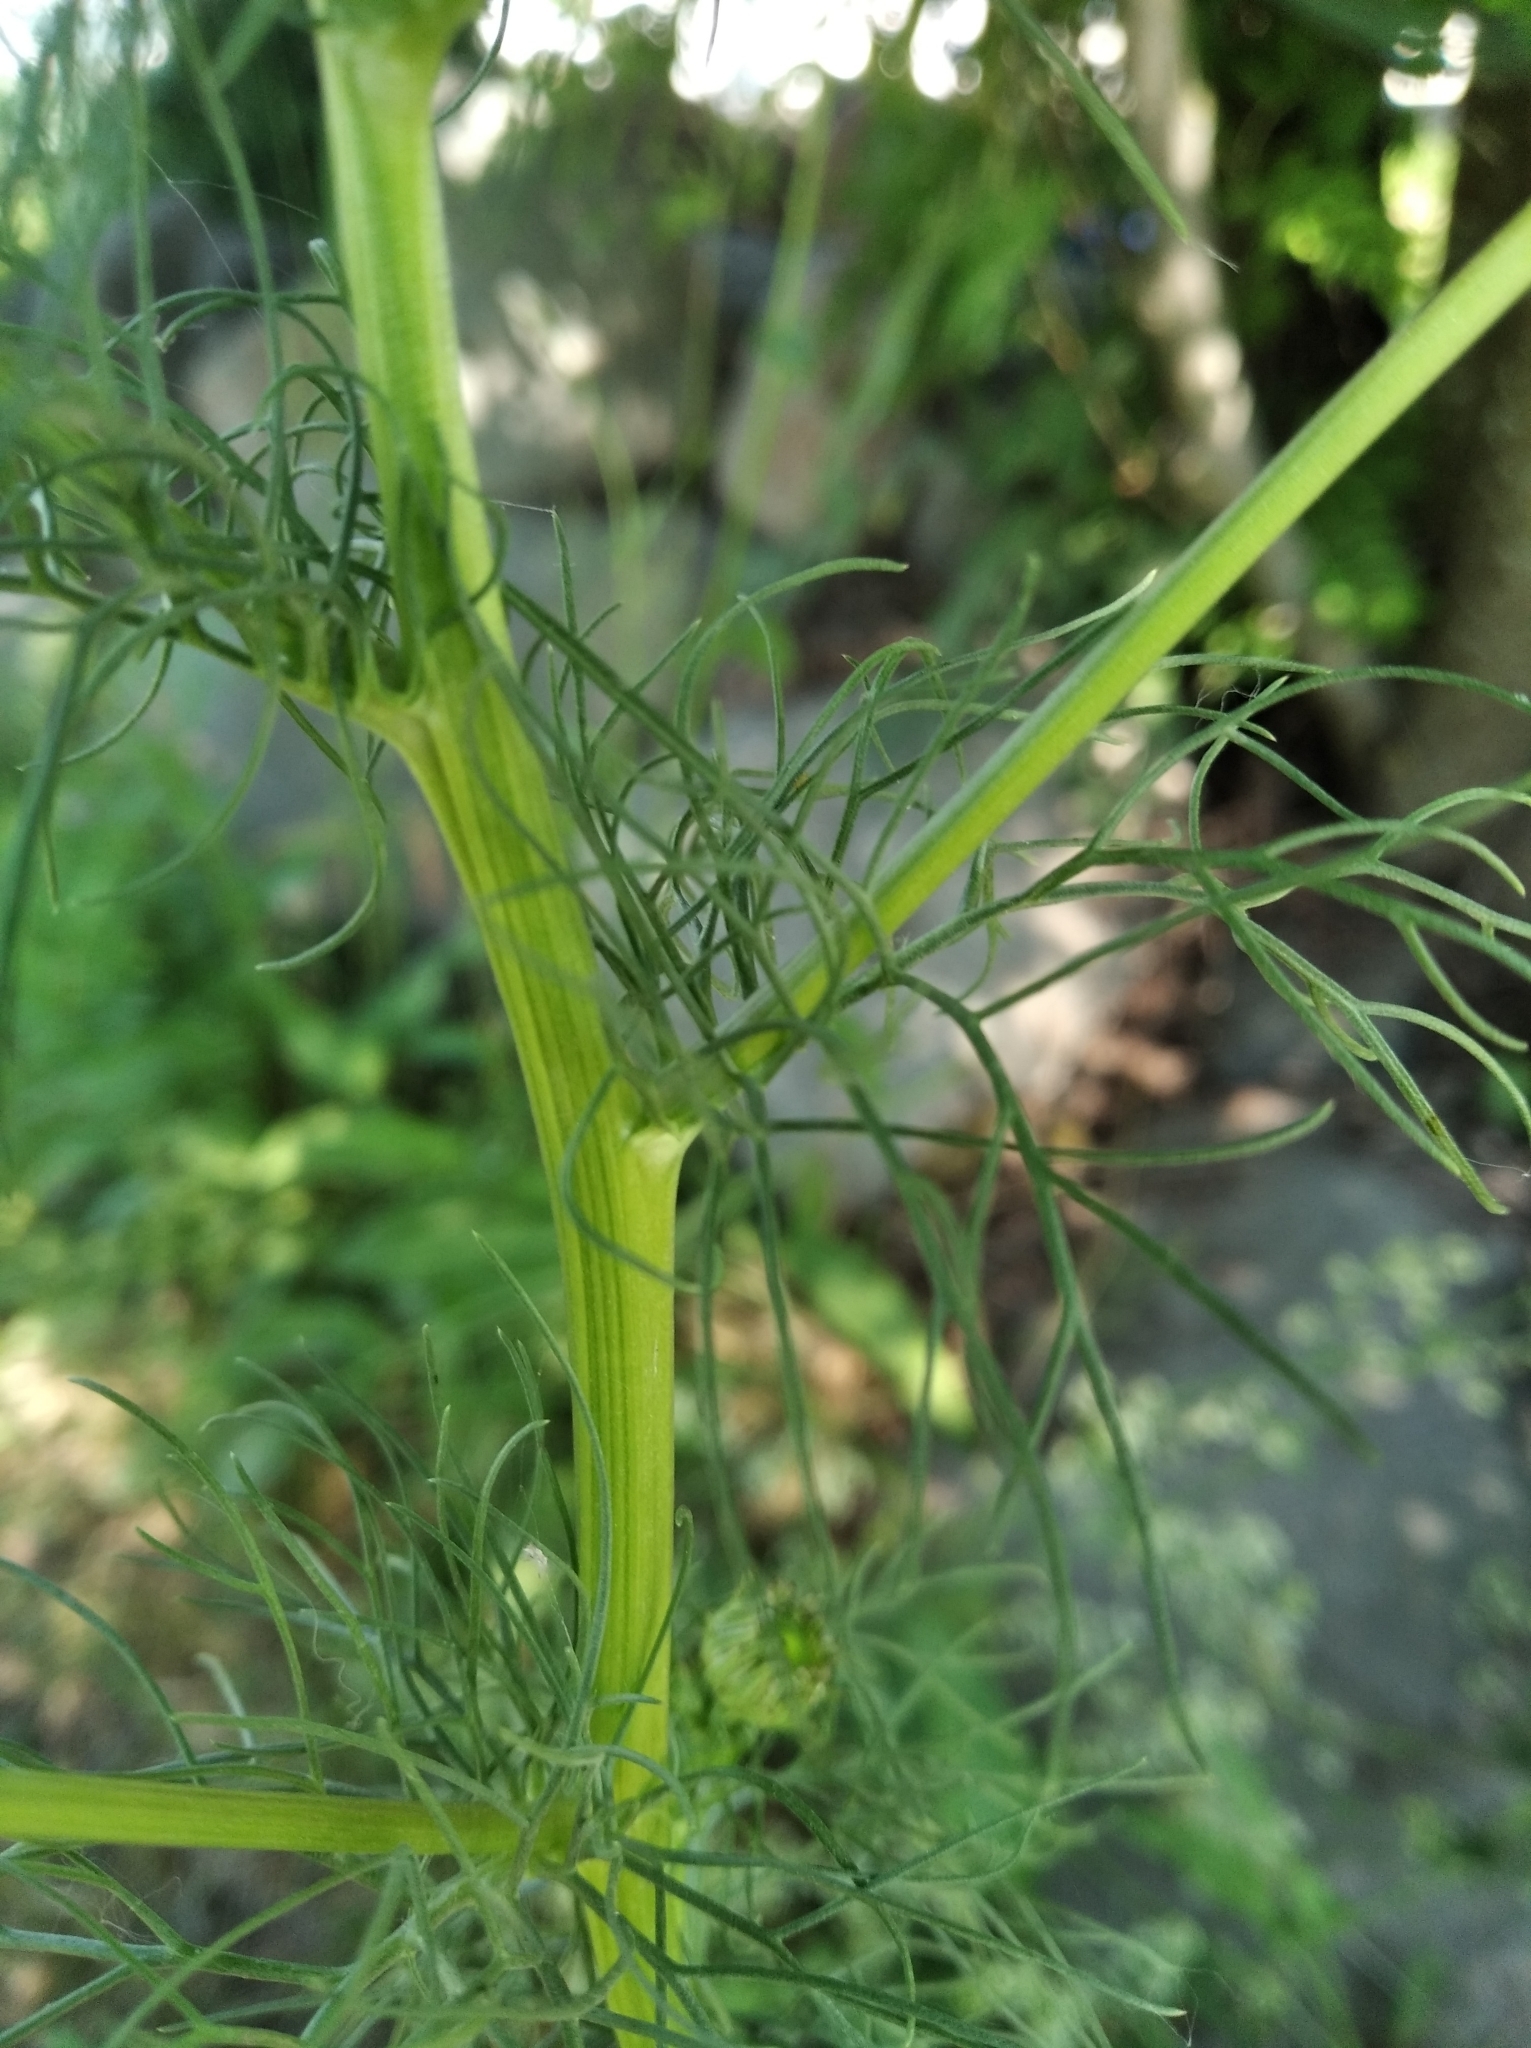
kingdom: Plantae
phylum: Tracheophyta
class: Magnoliopsida
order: Asterales
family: Asteraceae
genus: Tripleurospermum
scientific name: Tripleurospermum inodorum
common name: Scentless mayweed
